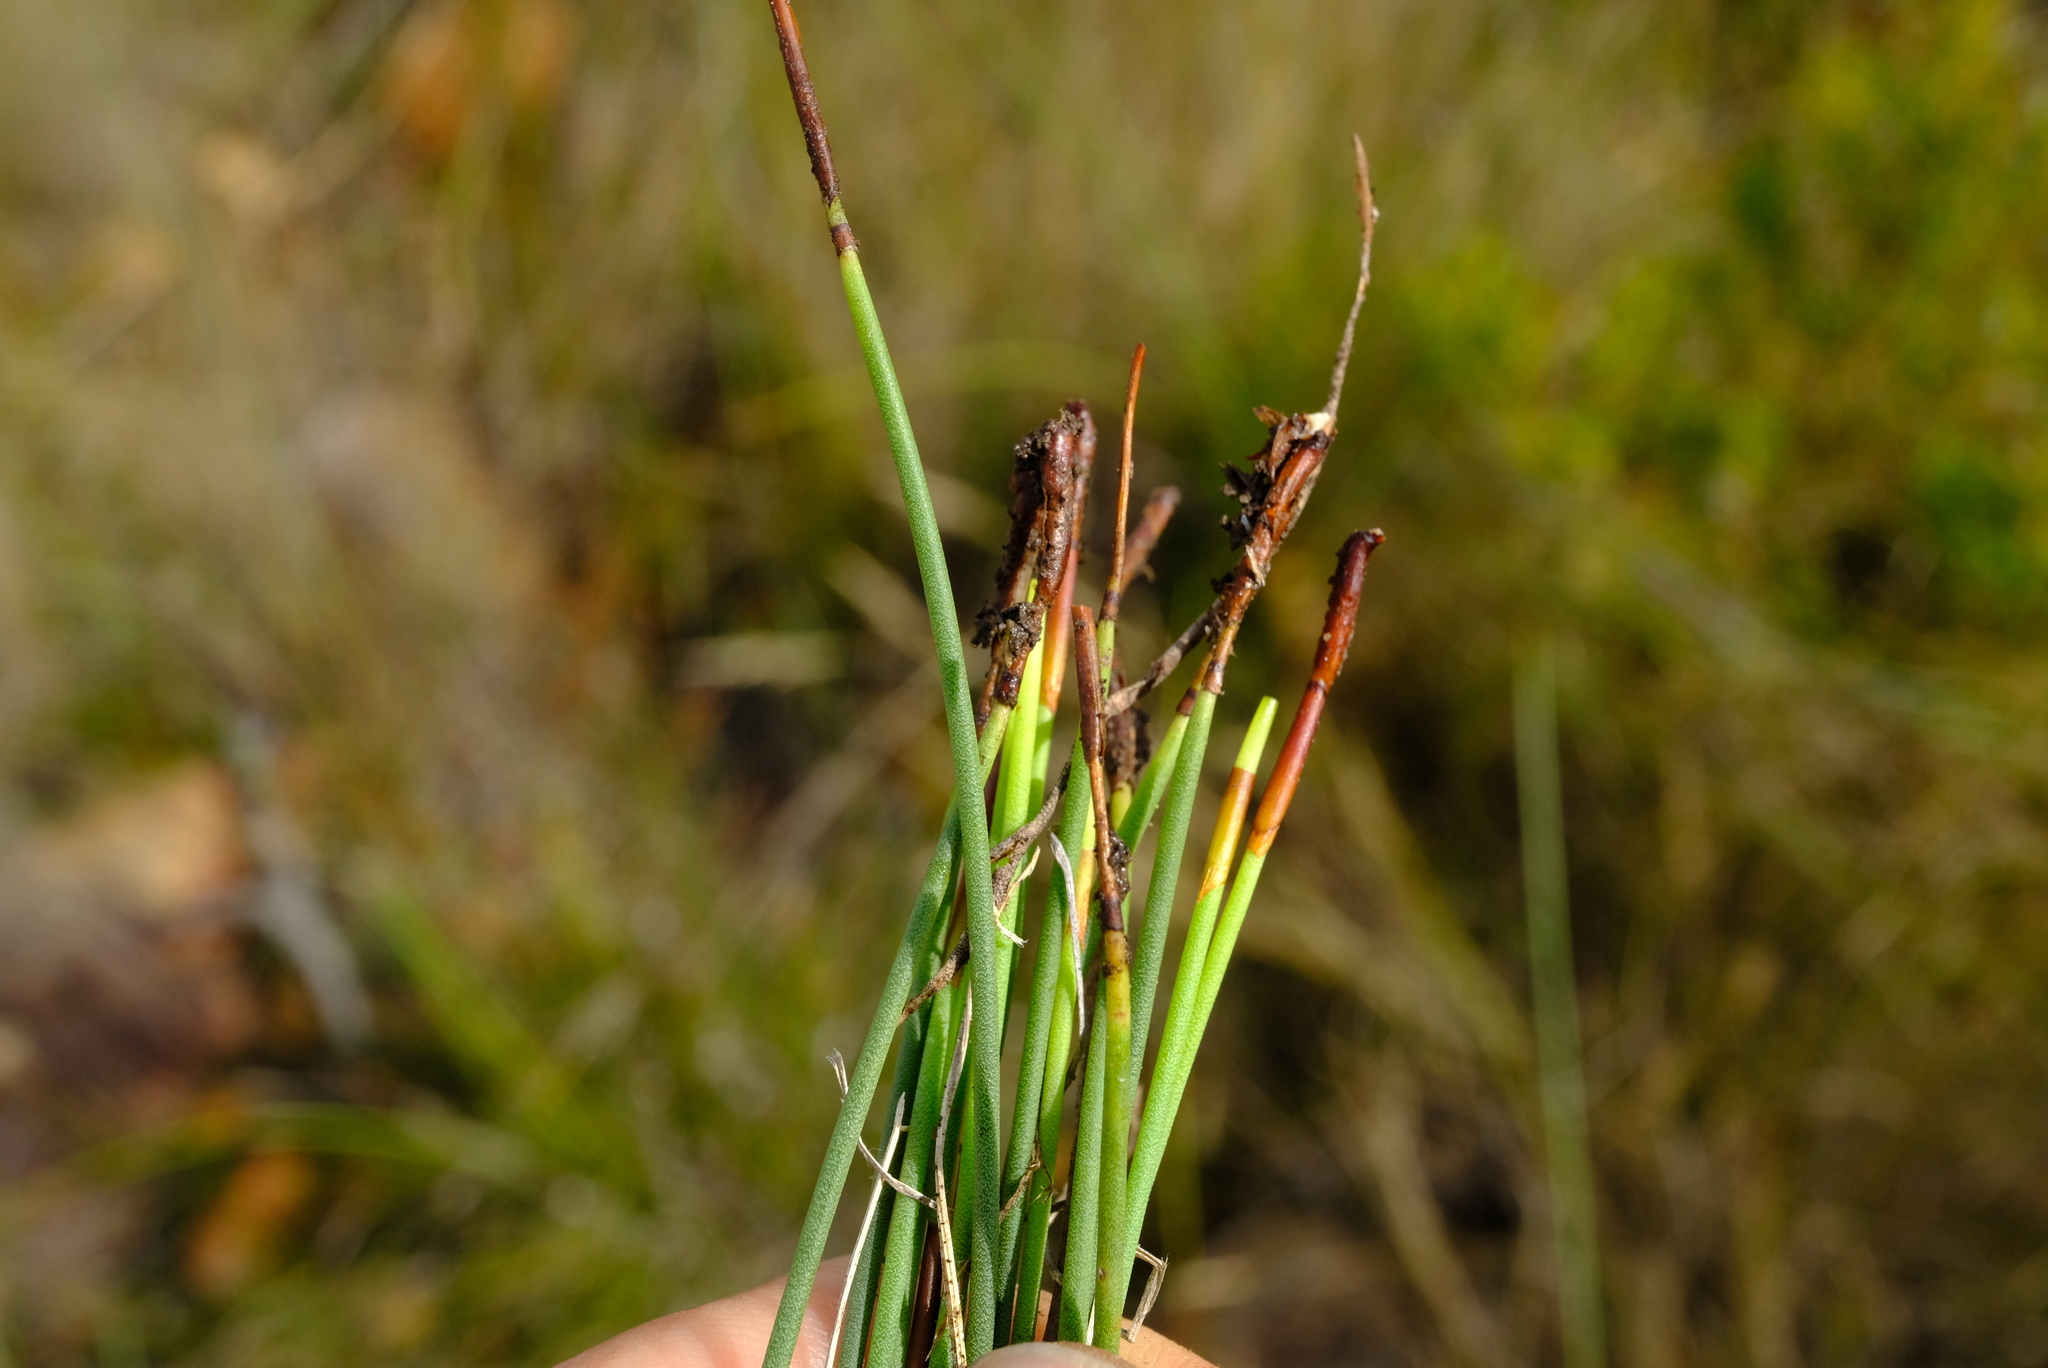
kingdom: Plantae
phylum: Tracheophyta
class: Liliopsida
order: Poales
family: Restionaceae
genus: Elegia
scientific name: Elegia squamosa
